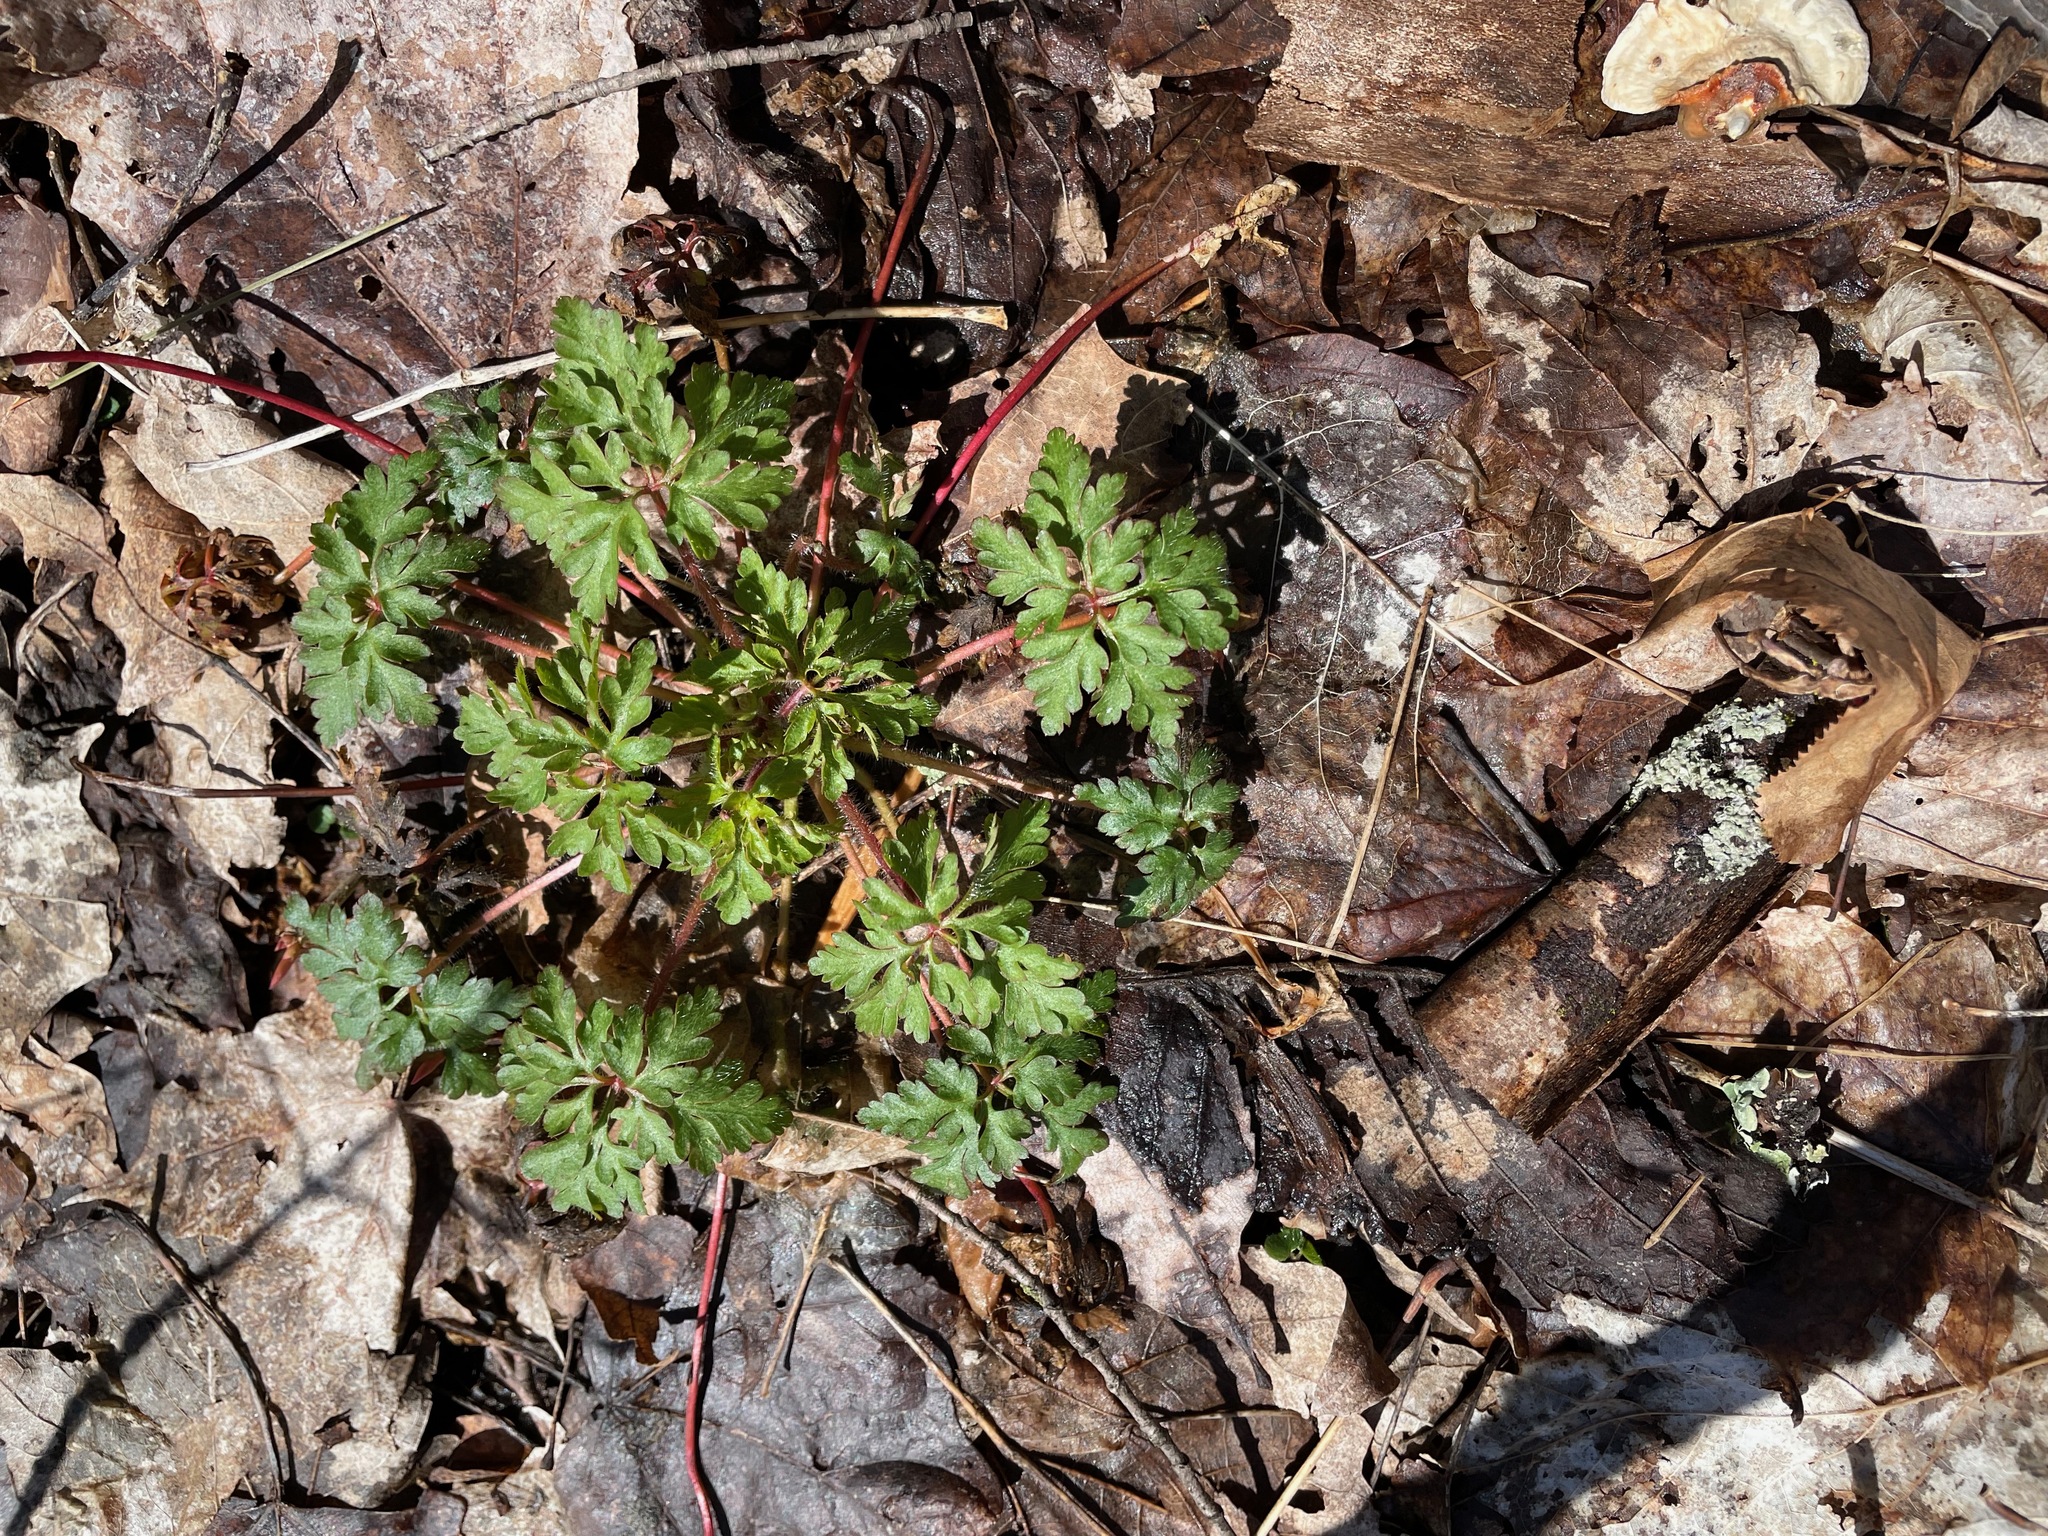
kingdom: Plantae
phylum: Tracheophyta
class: Magnoliopsida
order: Geraniales
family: Geraniaceae
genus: Geranium
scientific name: Geranium robertianum
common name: Herb-robert
